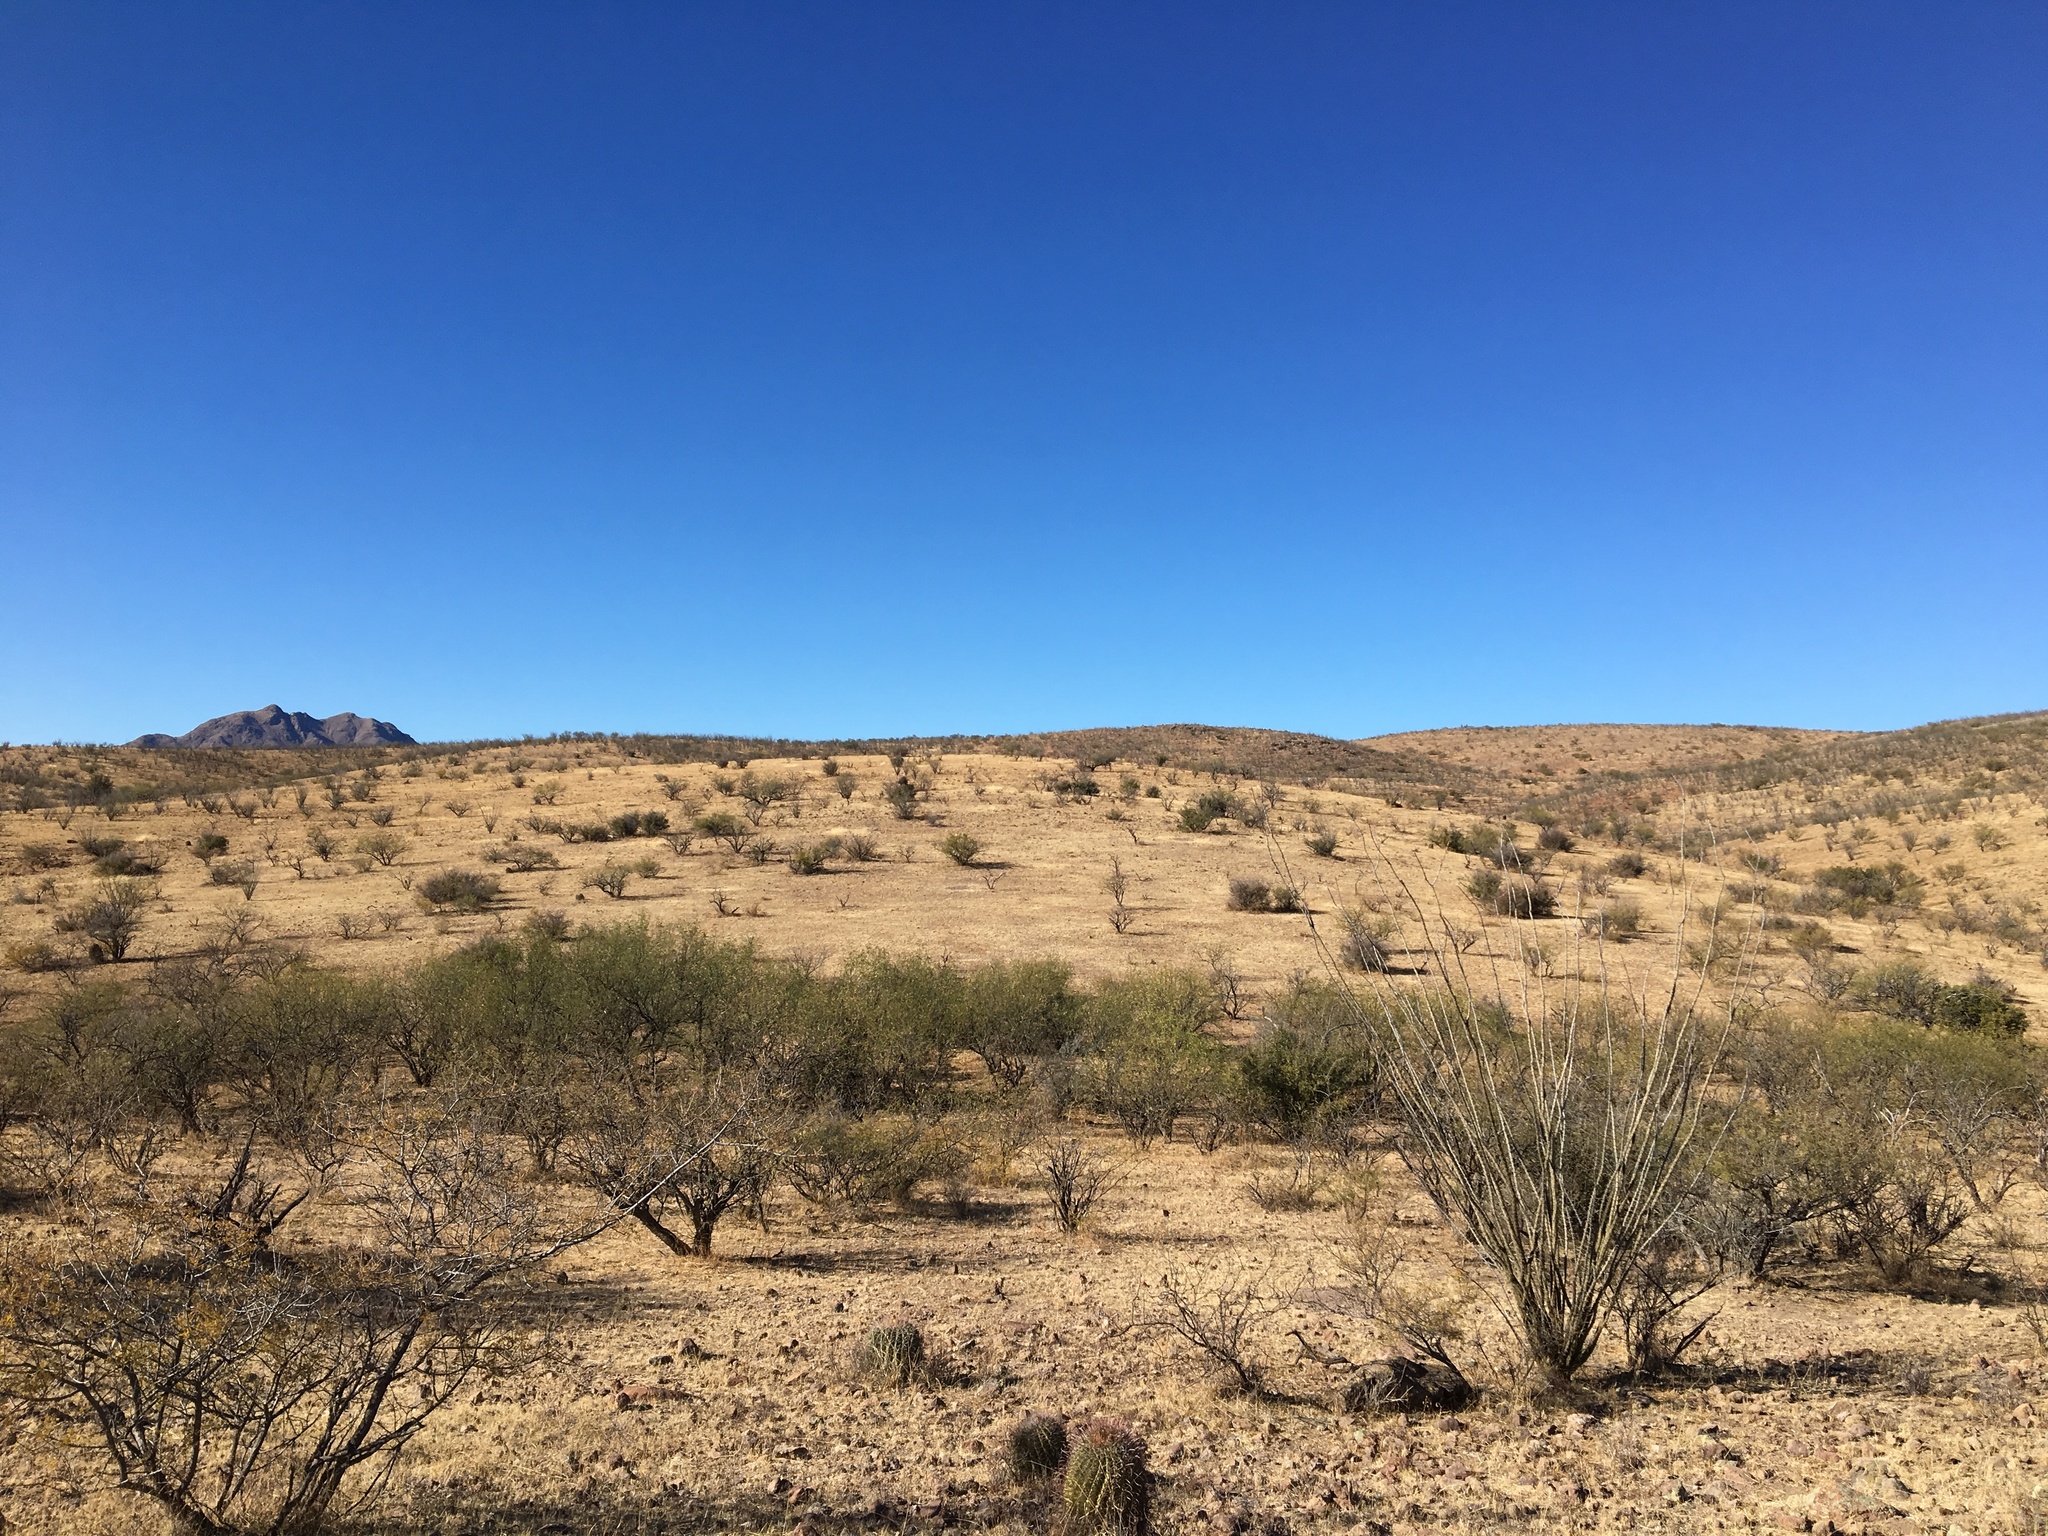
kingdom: Plantae
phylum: Tracheophyta
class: Magnoliopsida
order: Ericales
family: Fouquieriaceae
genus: Fouquieria
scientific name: Fouquieria splendens
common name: Vine-cactus
